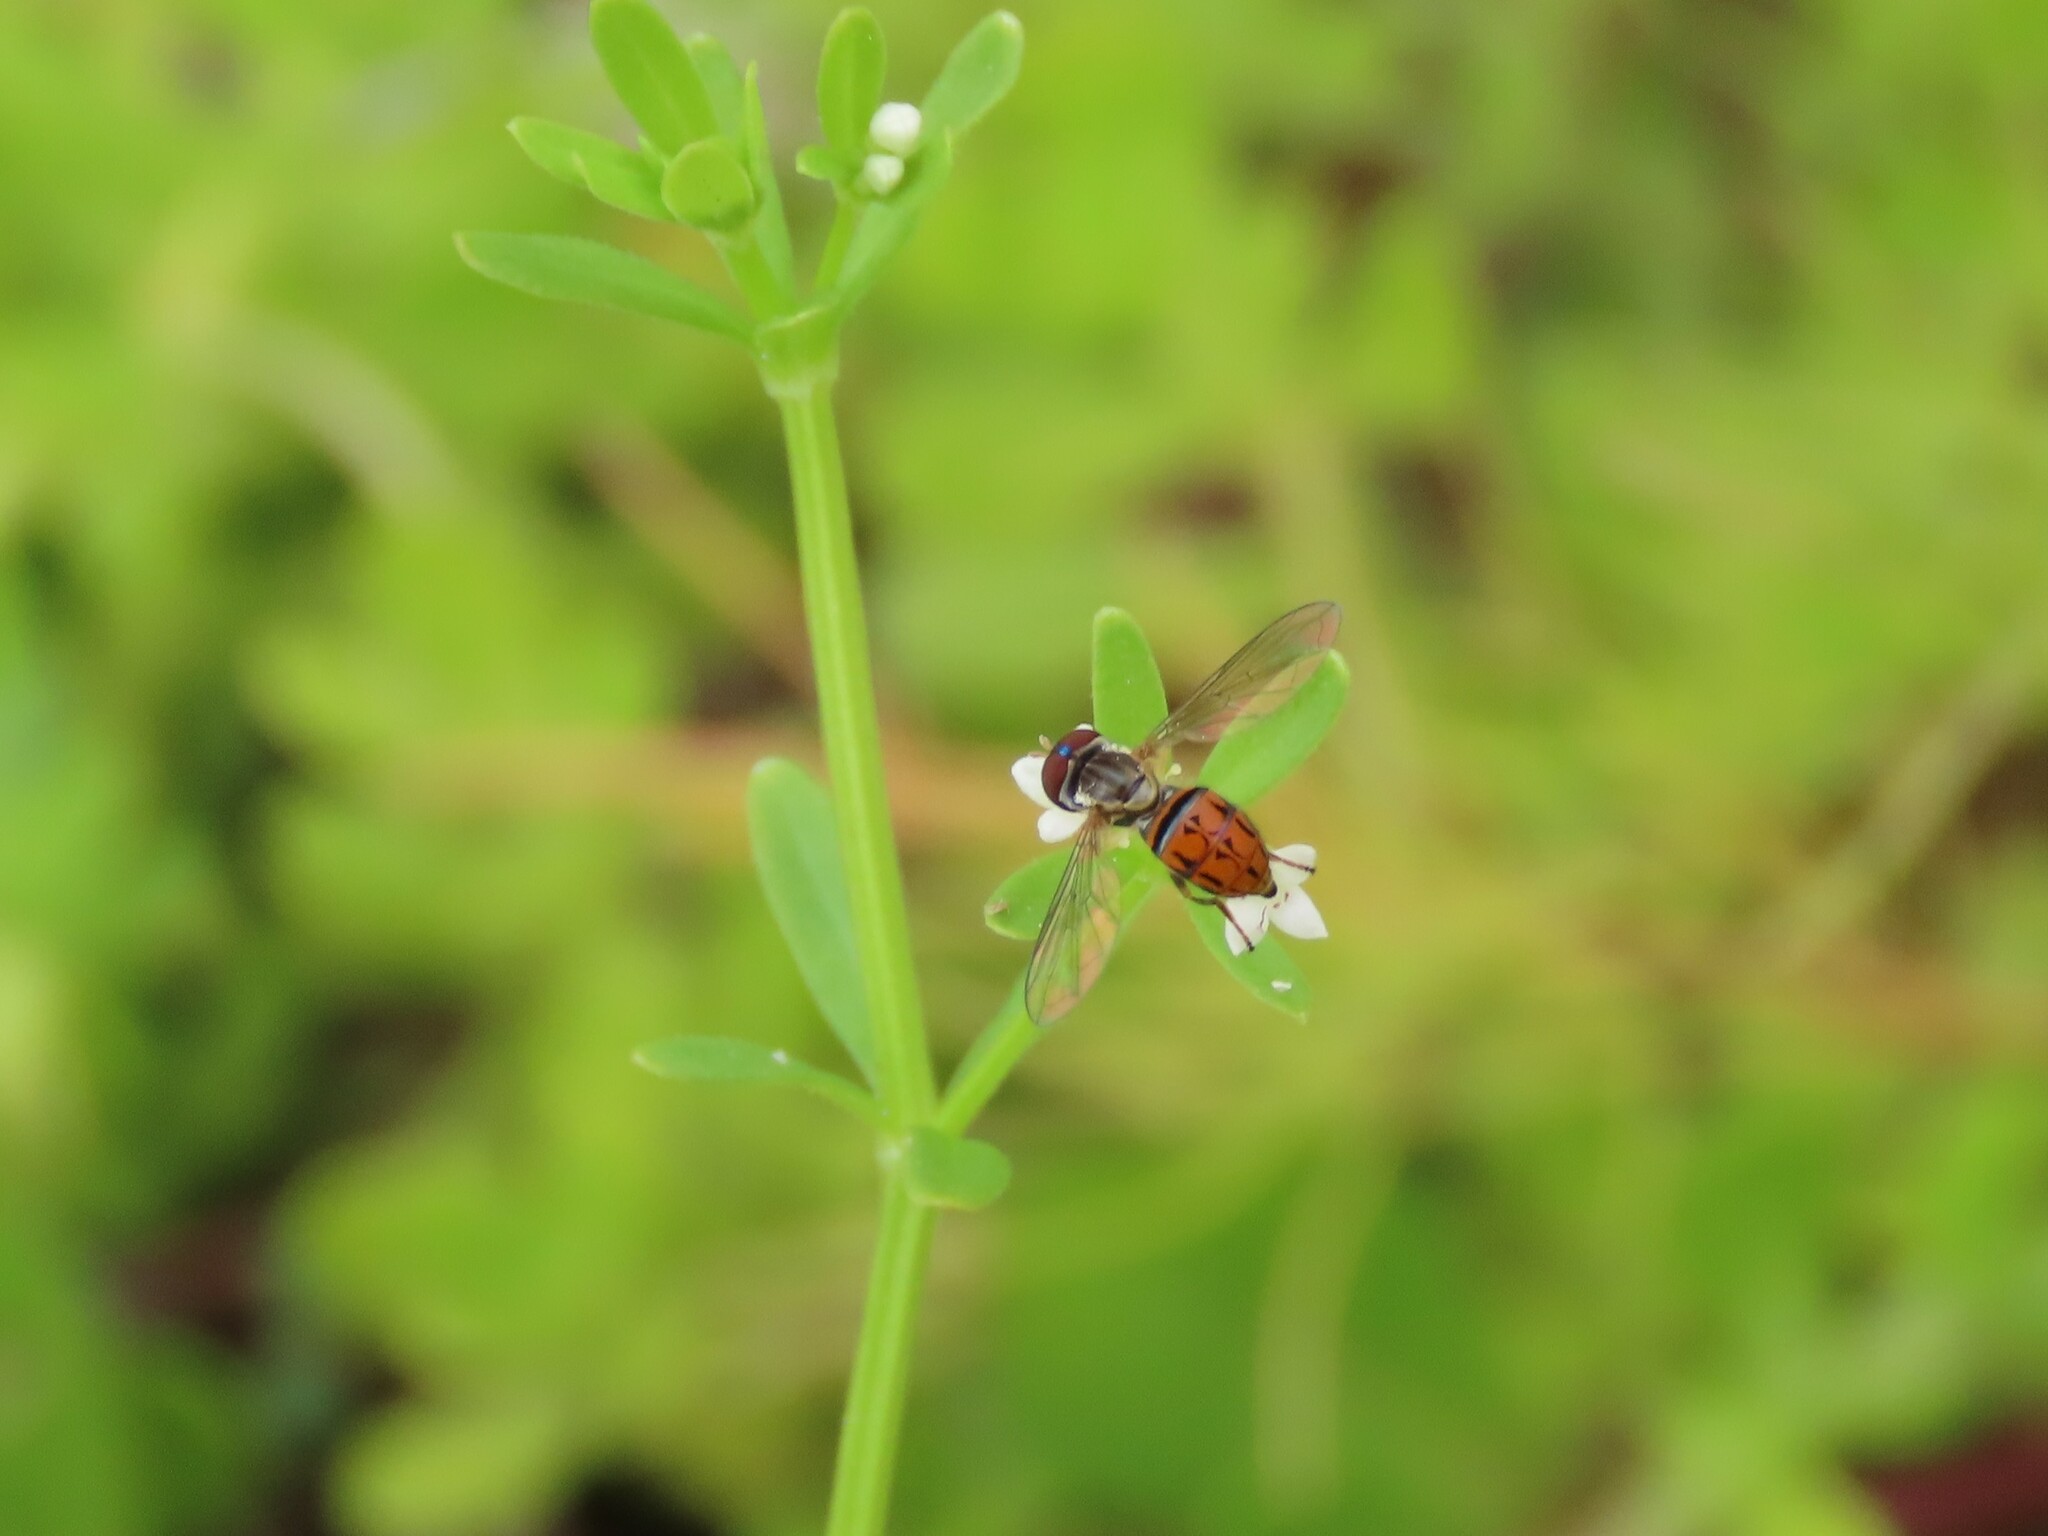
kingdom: Animalia
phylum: Arthropoda
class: Insecta
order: Diptera
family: Syrphidae
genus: Toxomerus
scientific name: Toxomerus boscii
